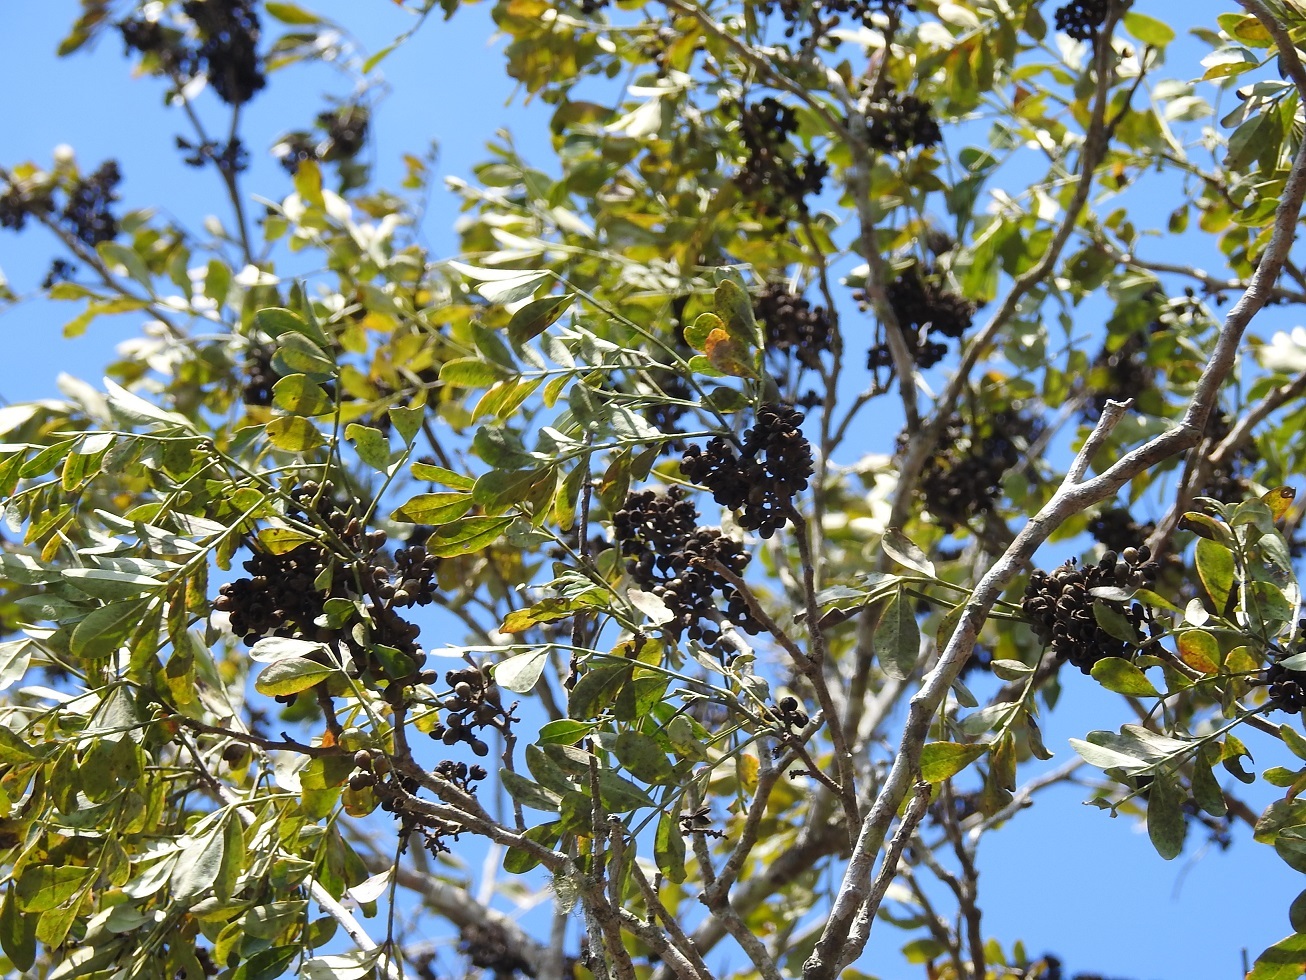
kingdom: Plantae
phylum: Tracheophyta
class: Magnoliopsida
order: Sapindales
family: Rutaceae
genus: Zanthoxylum
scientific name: Zanthoxylum quassiifolium
